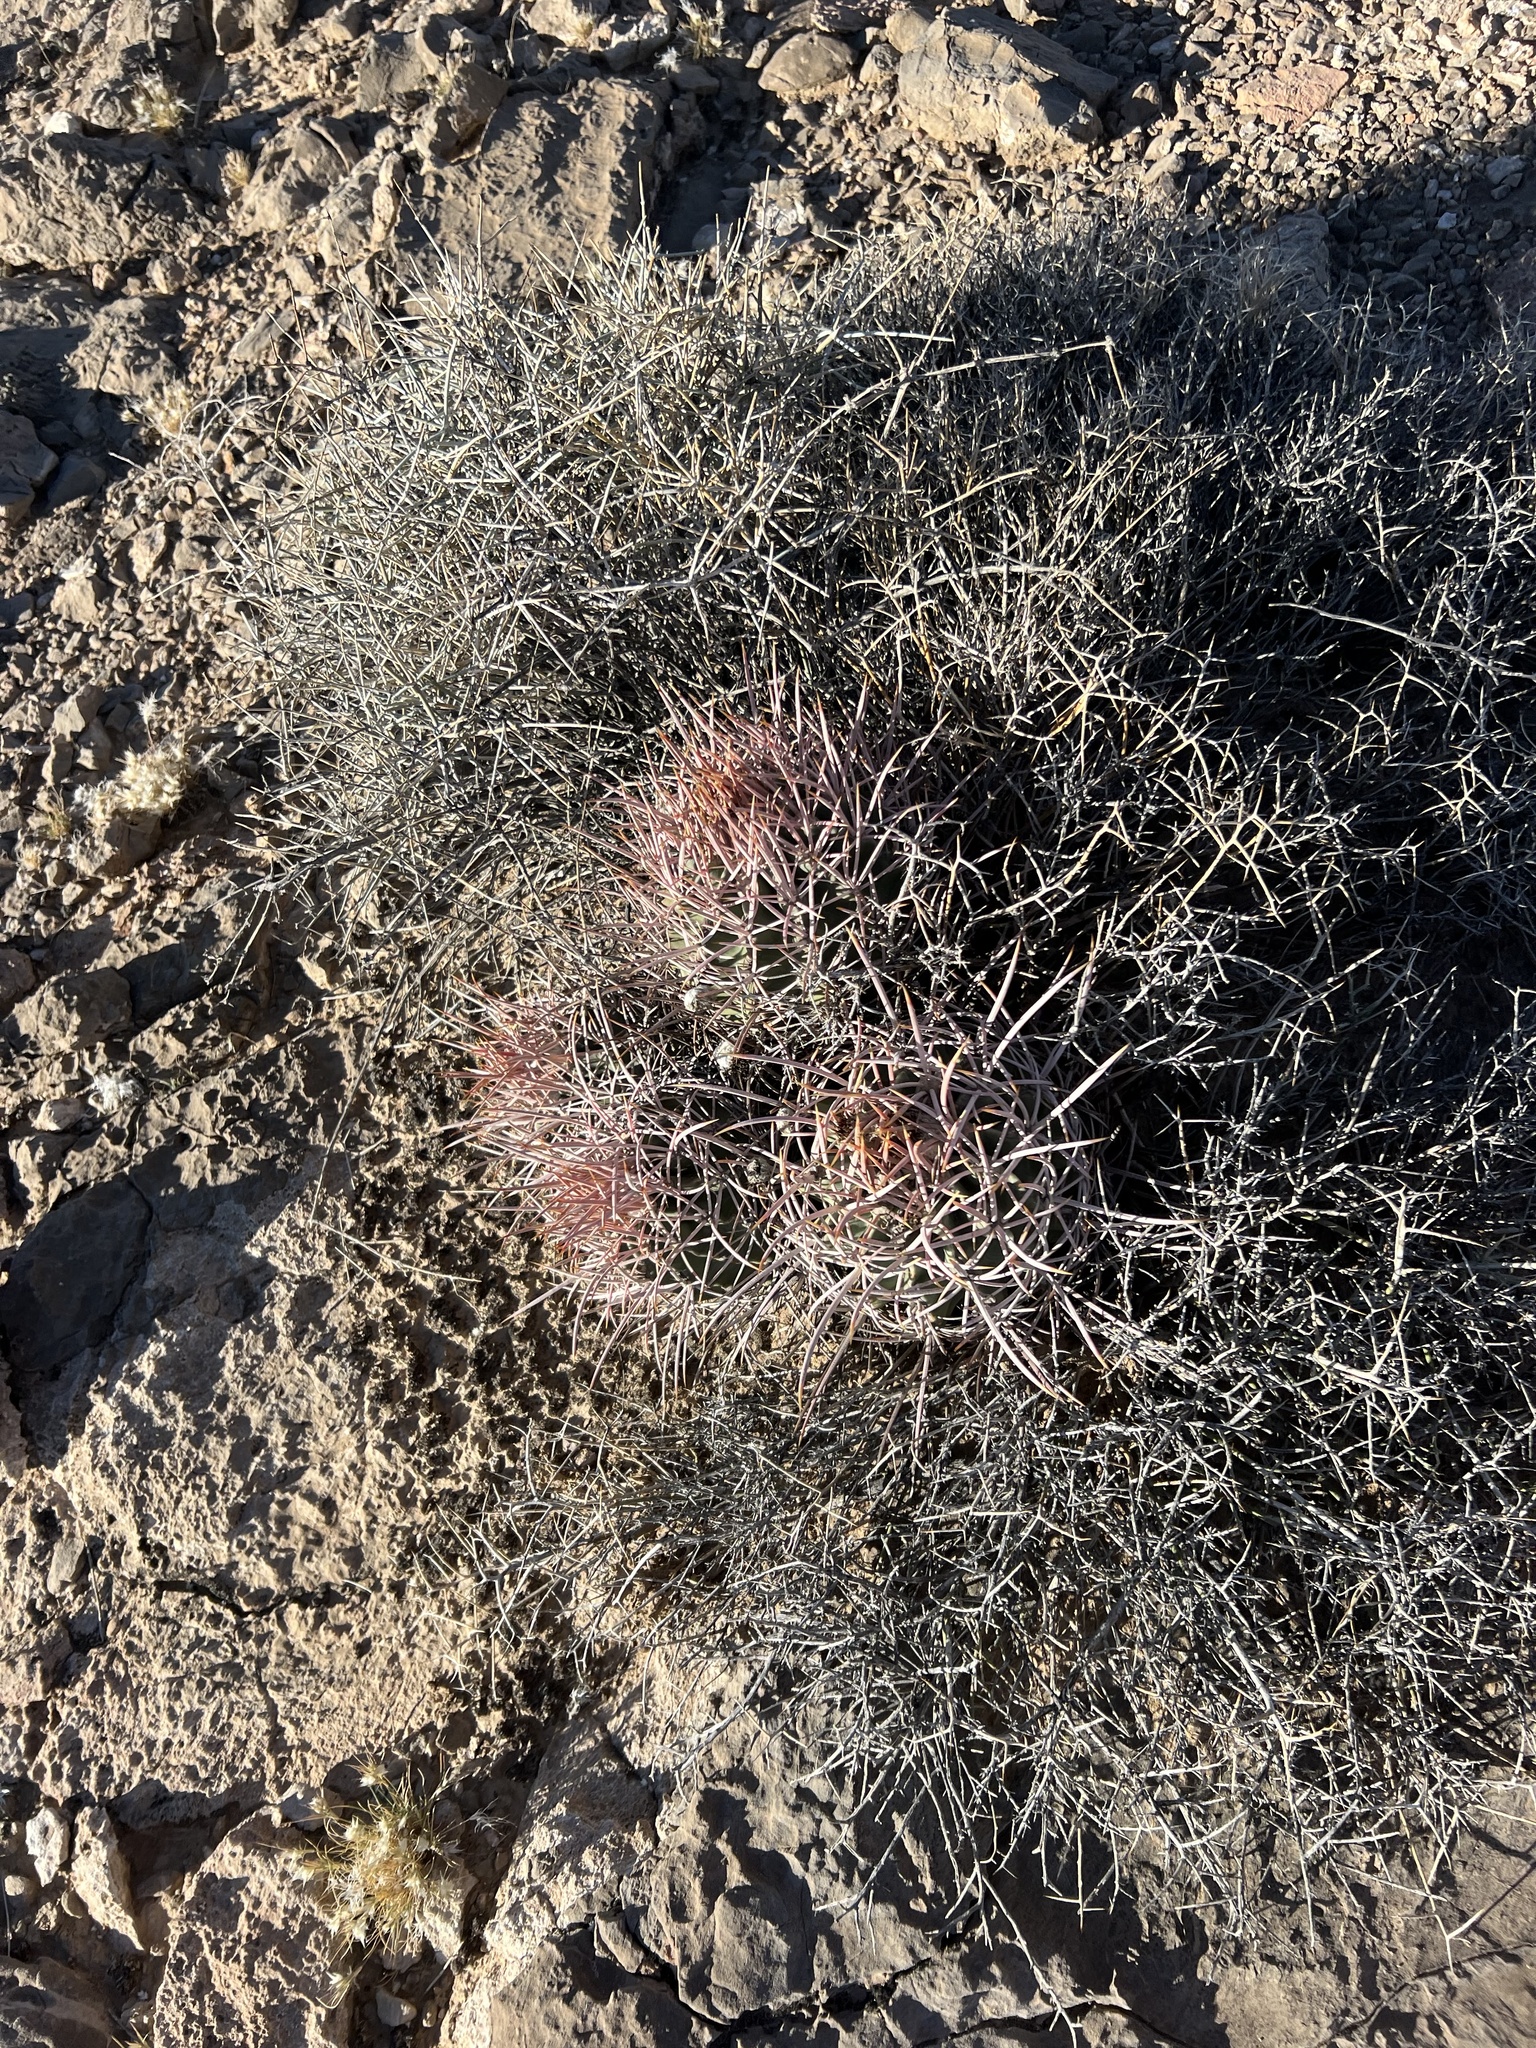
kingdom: Plantae
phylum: Tracheophyta
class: Magnoliopsida
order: Caryophyllales
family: Cactaceae
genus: Echinocactus
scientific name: Echinocactus polycephalus
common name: Cottontop cactus
